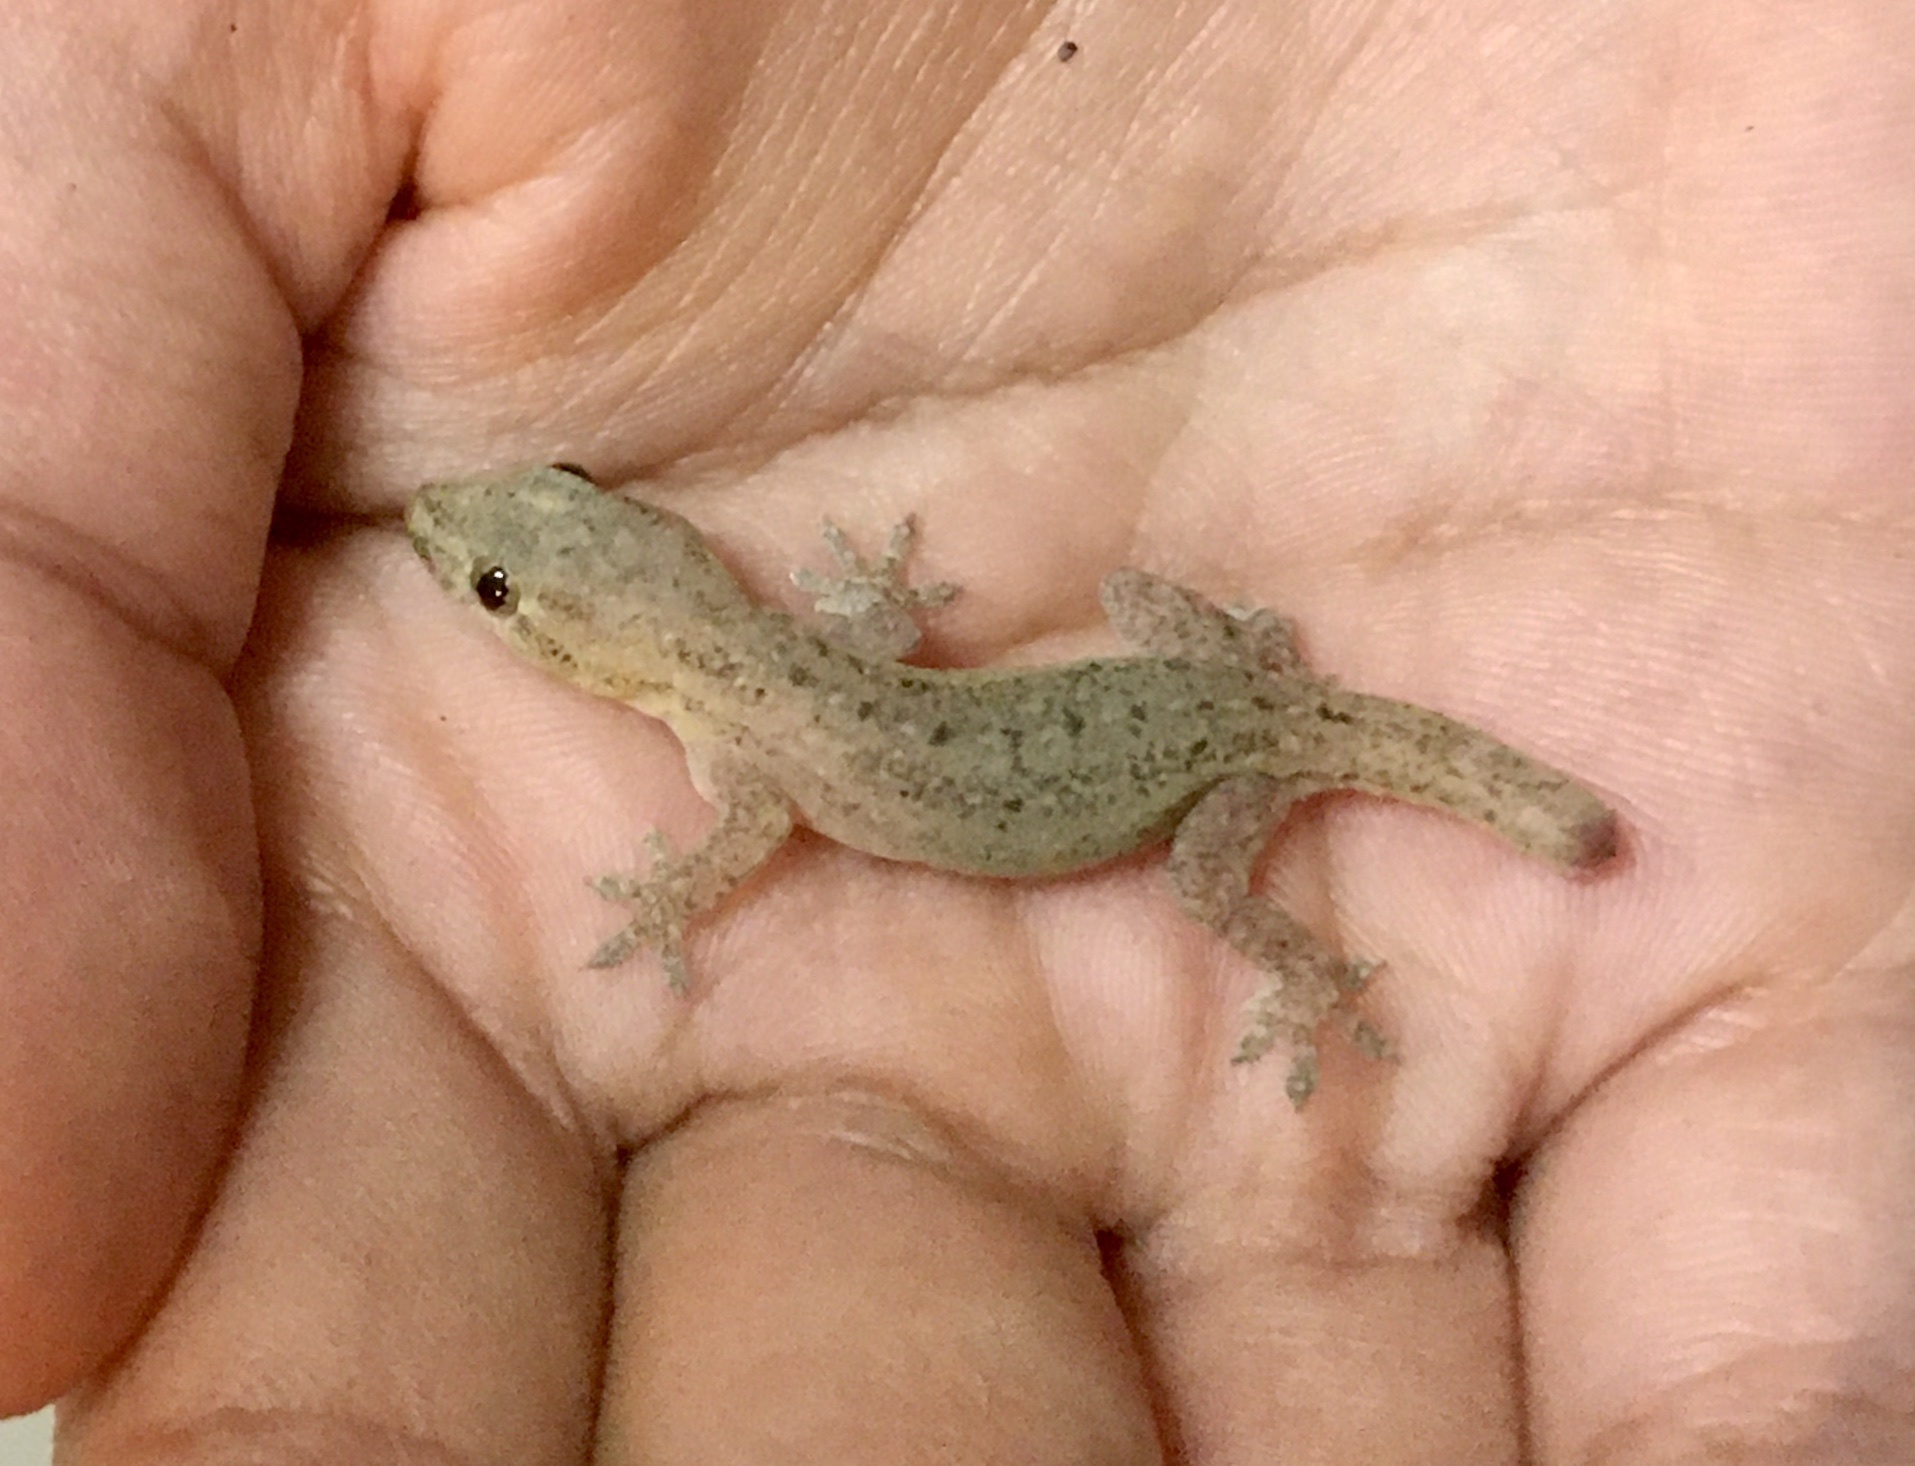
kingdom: Animalia
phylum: Chordata
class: Squamata
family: Gekkonidae
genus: Hemidactylus
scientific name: Hemidactylus frenatus
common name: Common house gecko
